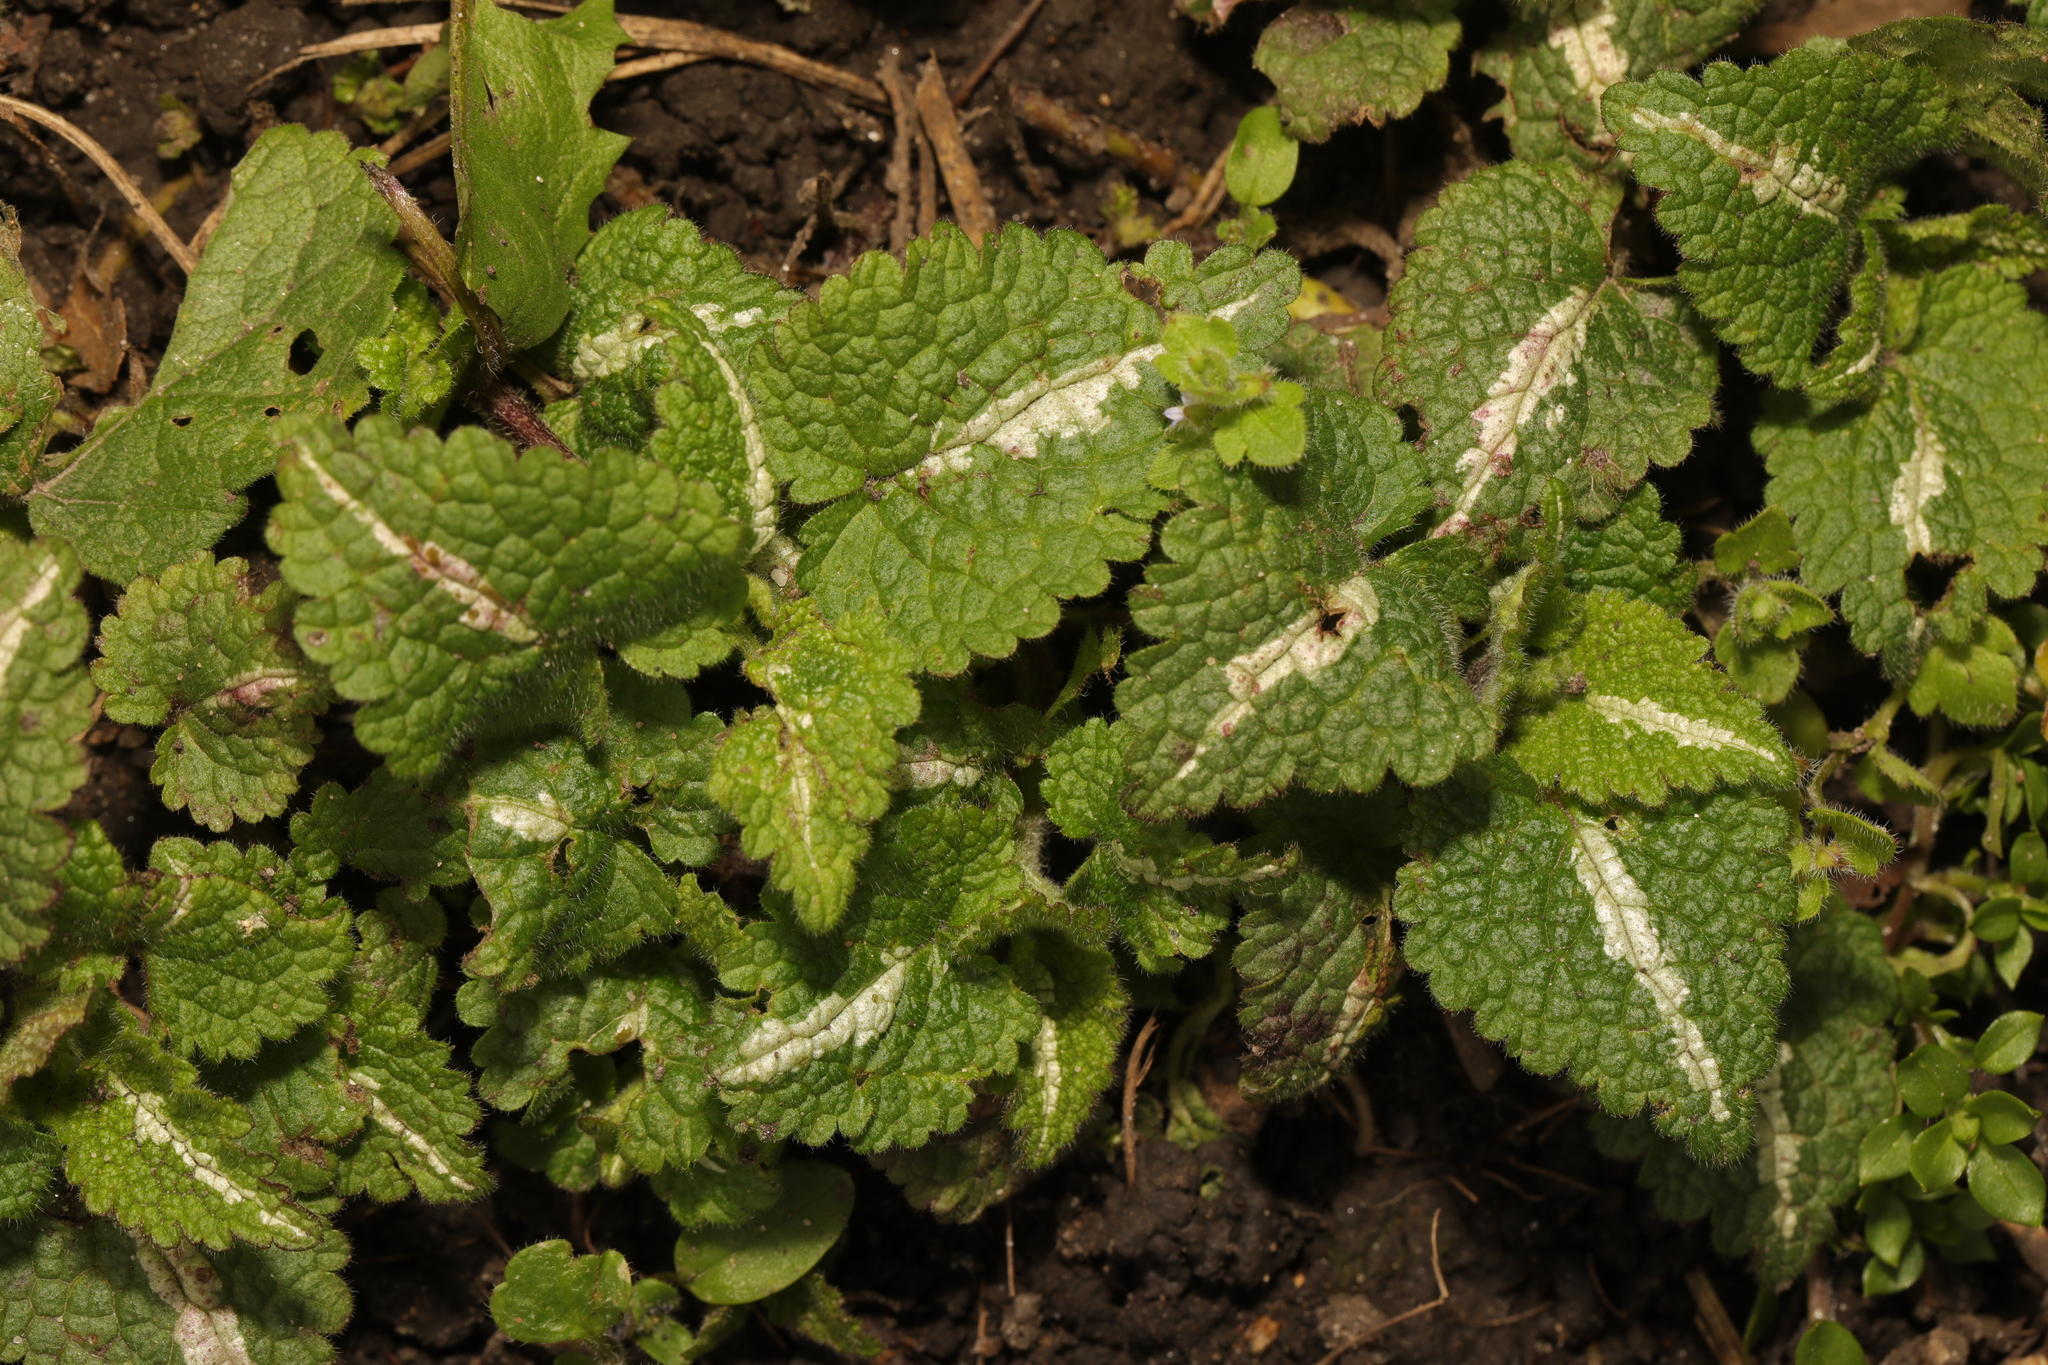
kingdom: Plantae
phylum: Tracheophyta
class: Magnoliopsida
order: Lamiales
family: Lamiaceae
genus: Lamium
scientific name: Lamium maculatum
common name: Spotted dead-nettle
